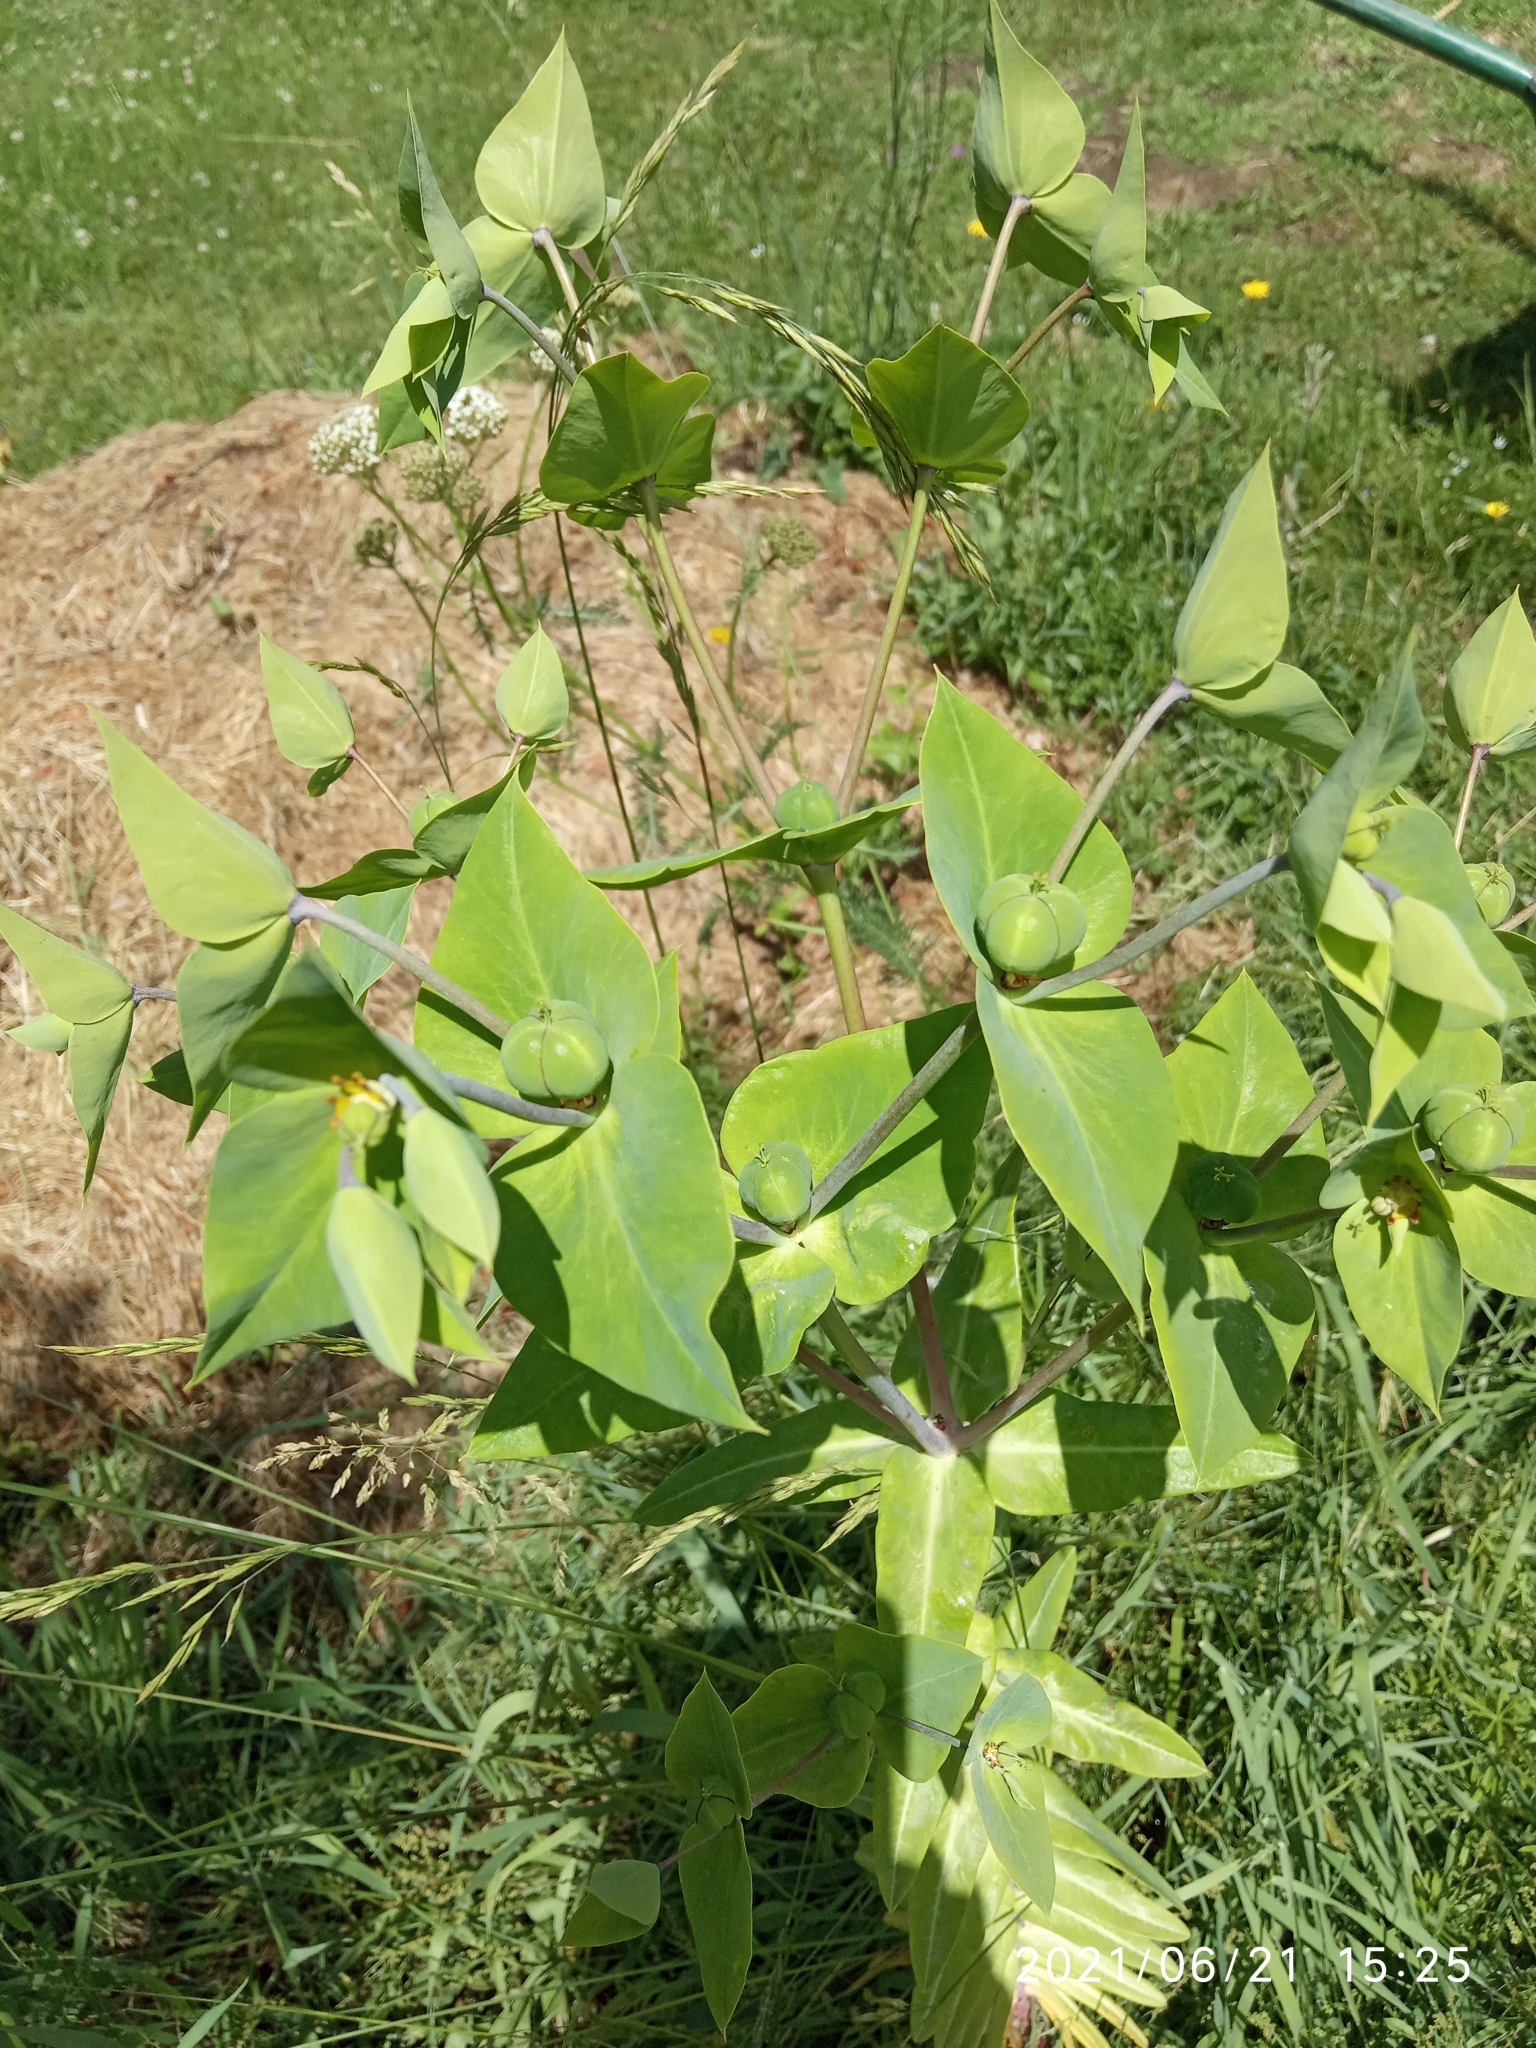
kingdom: Plantae
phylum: Tracheophyta
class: Magnoliopsida
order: Malpighiales
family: Euphorbiaceae
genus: Euphorbia
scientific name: Euphorbia lathyris
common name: Caper spurge
